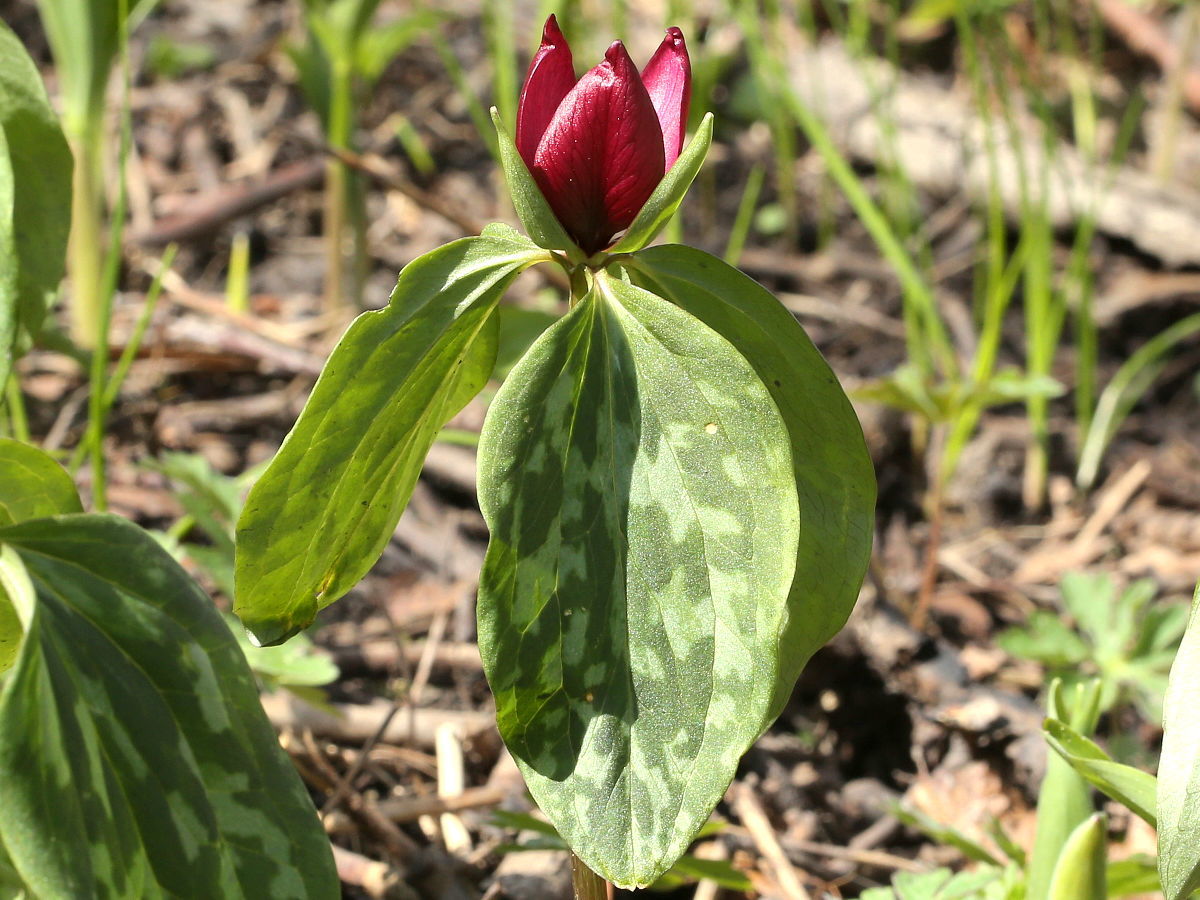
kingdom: Plantae
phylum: Tracheophyta
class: Liliopsida
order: Liliales
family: Melanthiaceae
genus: Trillium
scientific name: Trillium recurvatum
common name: Bloody butcher
